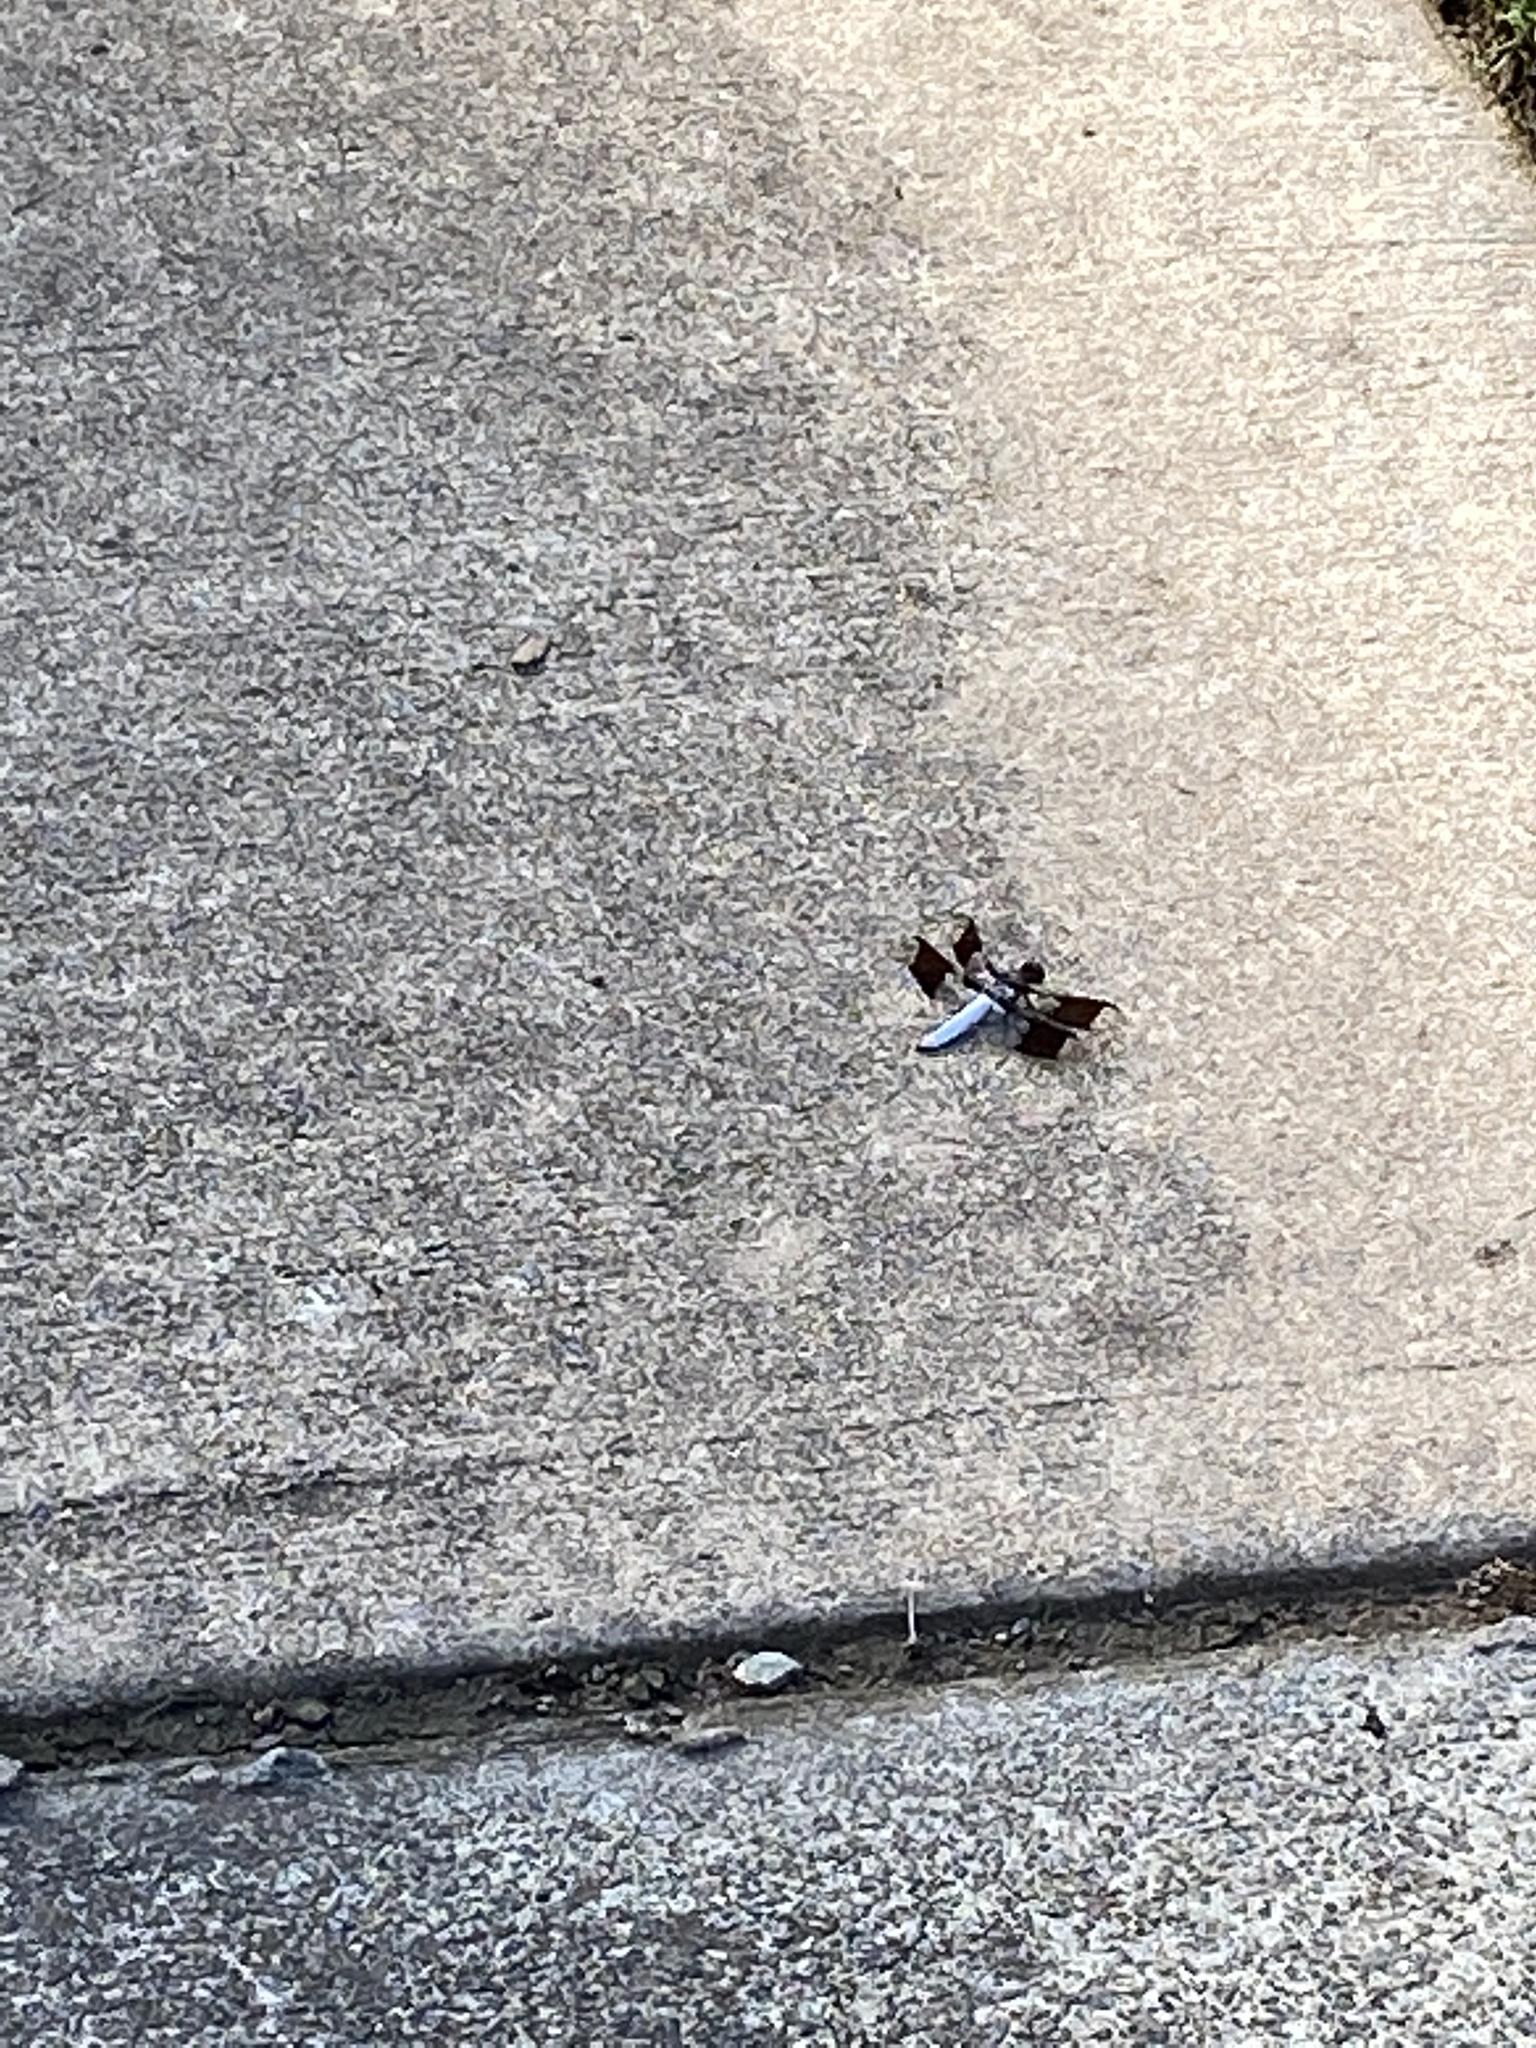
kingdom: Animalia
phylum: Arthropoda
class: Insecta
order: Odonata
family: Libellulidae
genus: Plathemis
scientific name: Plathemis lydia
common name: Common whitetail
